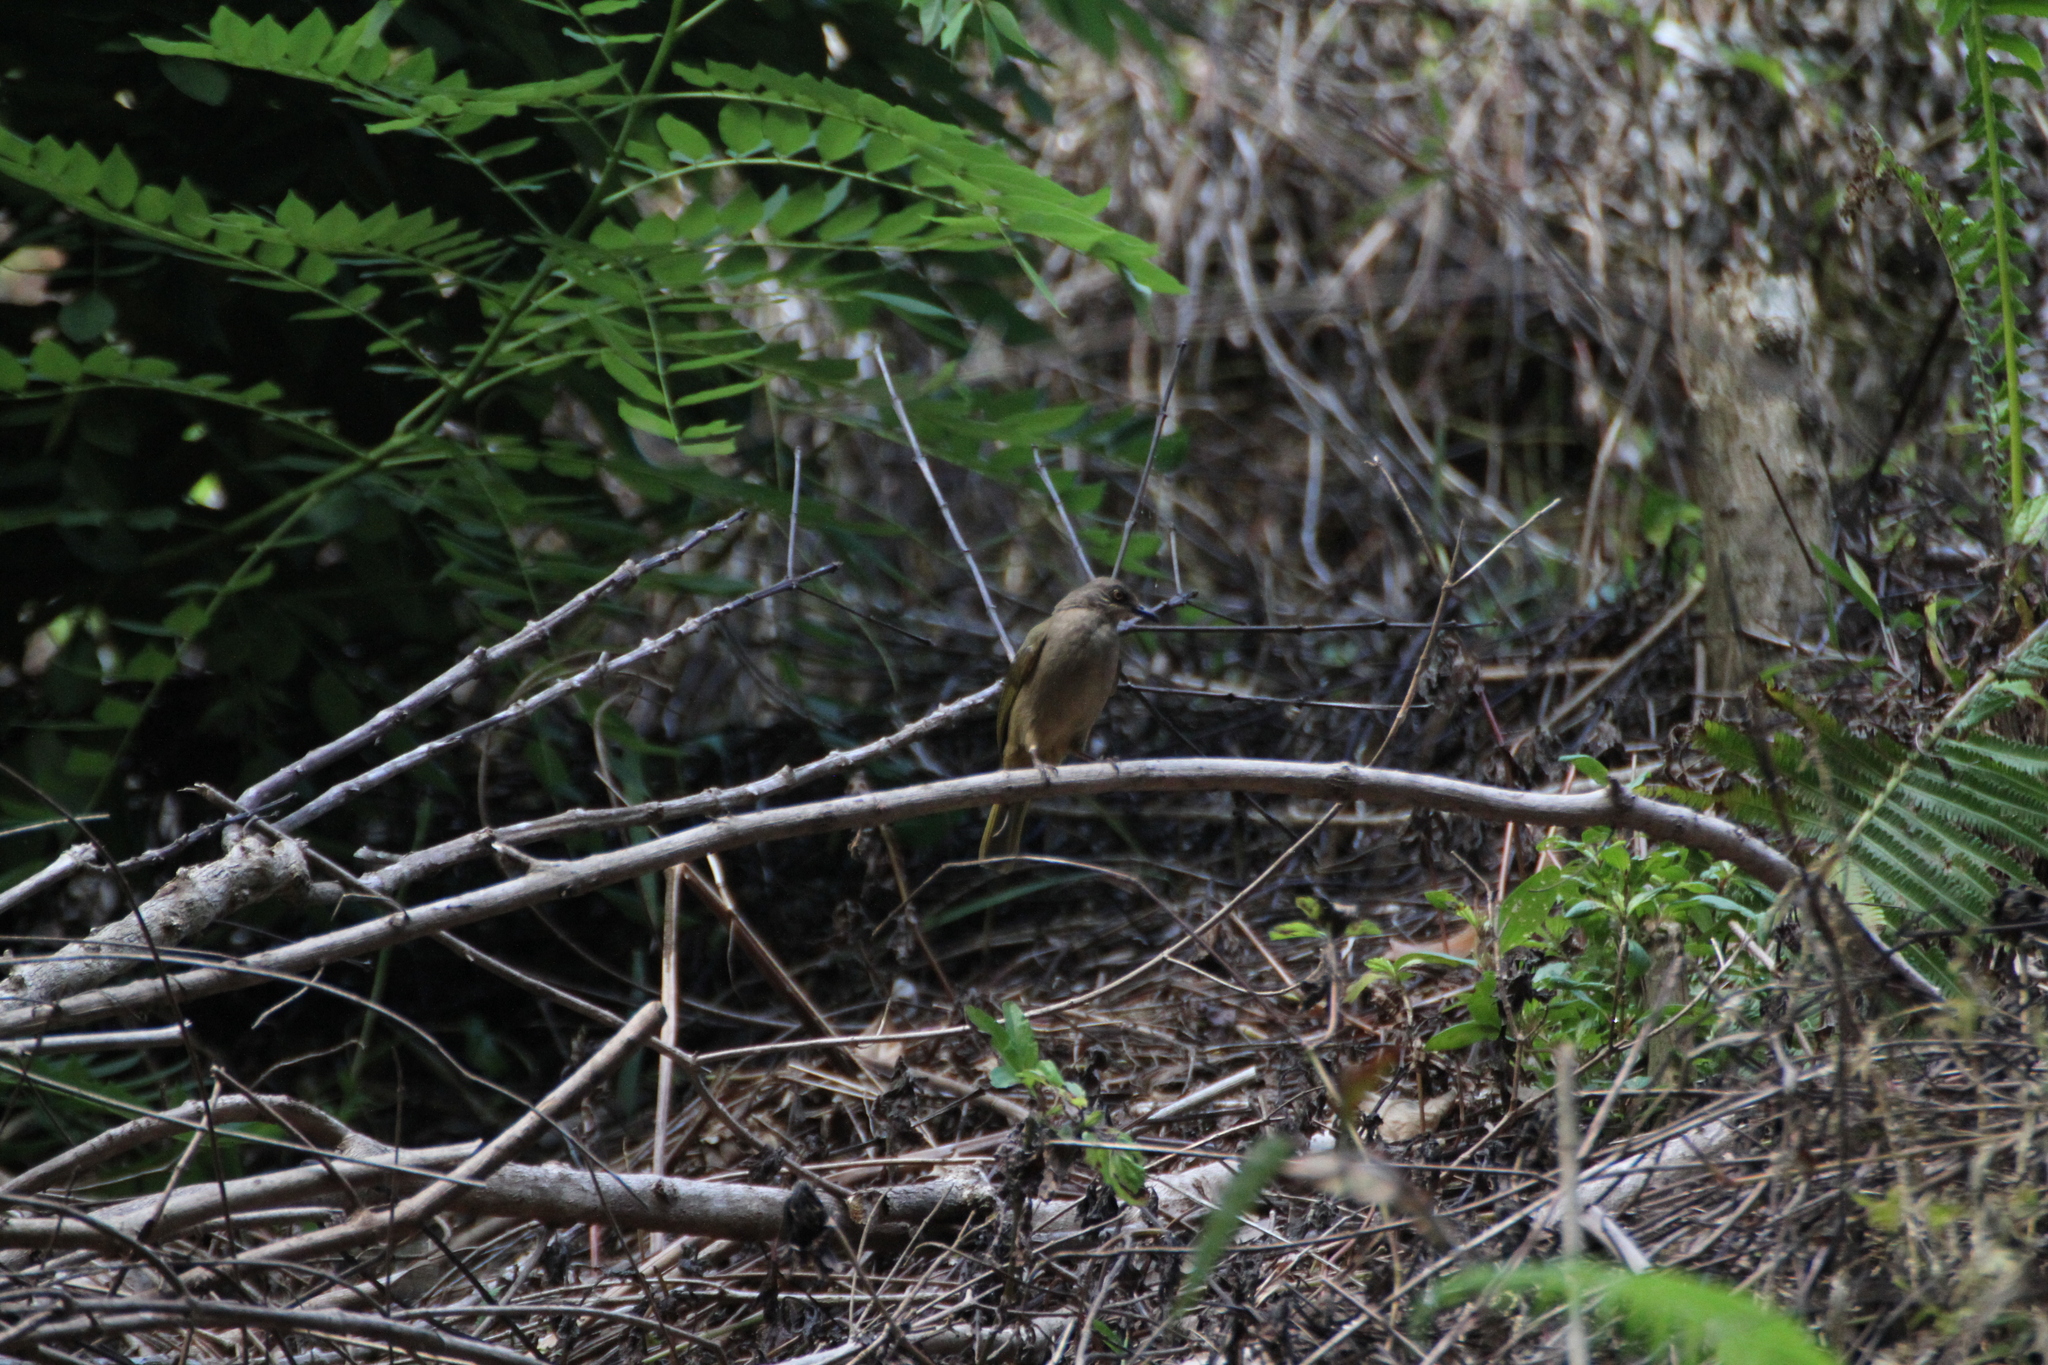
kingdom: Animalia
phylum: Chordata
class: Aves
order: Passeriformes
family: Pycnonotidae
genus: Pycnonotus
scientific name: Pycnonotus plumosus
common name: Olive-winged bulbul
